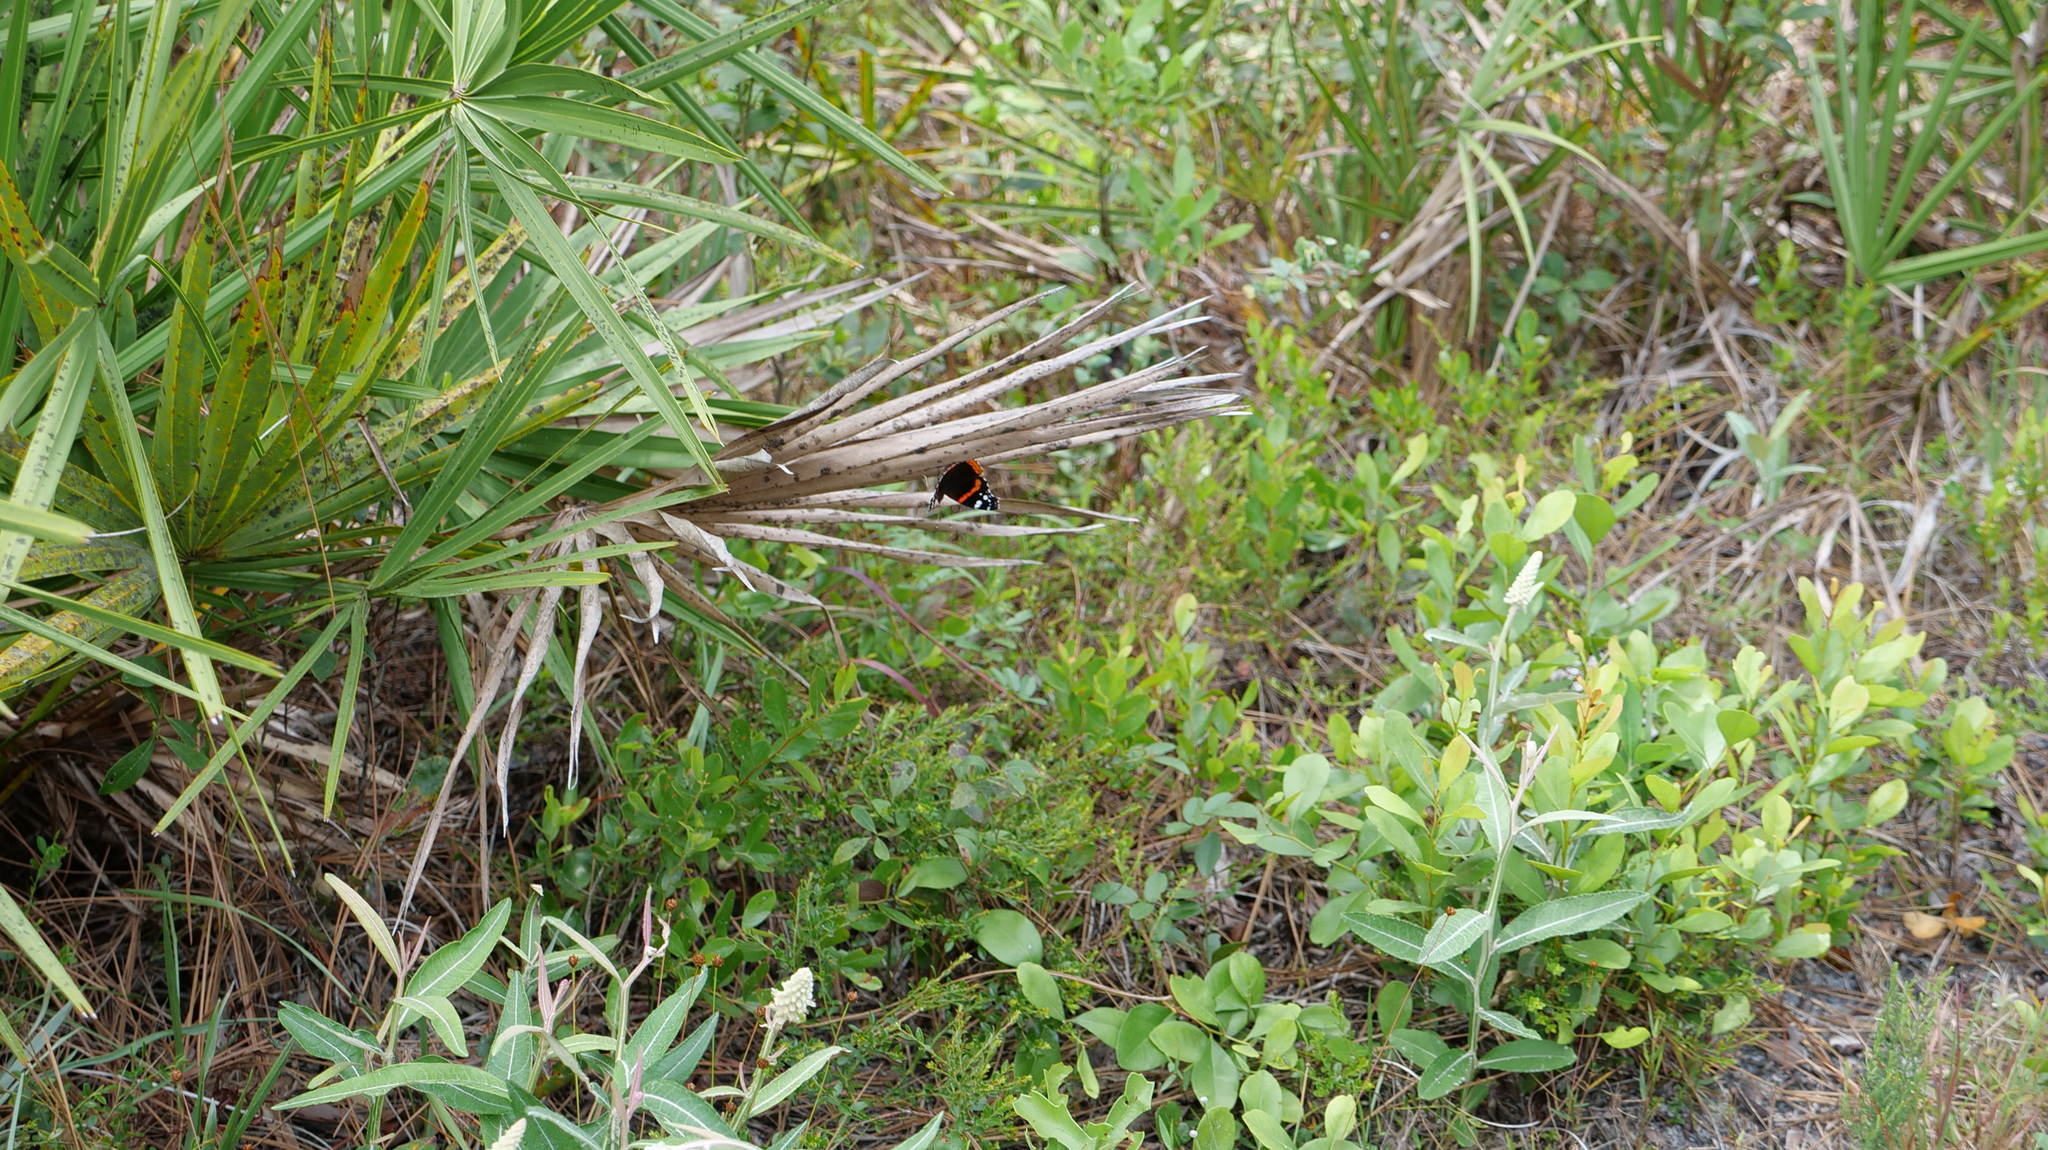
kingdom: Animalia
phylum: Arthropoda
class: Insecta
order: Lepidoptera
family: Nymphalidae
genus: Vanessa
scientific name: Vanessa atalanta
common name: Red admiral
